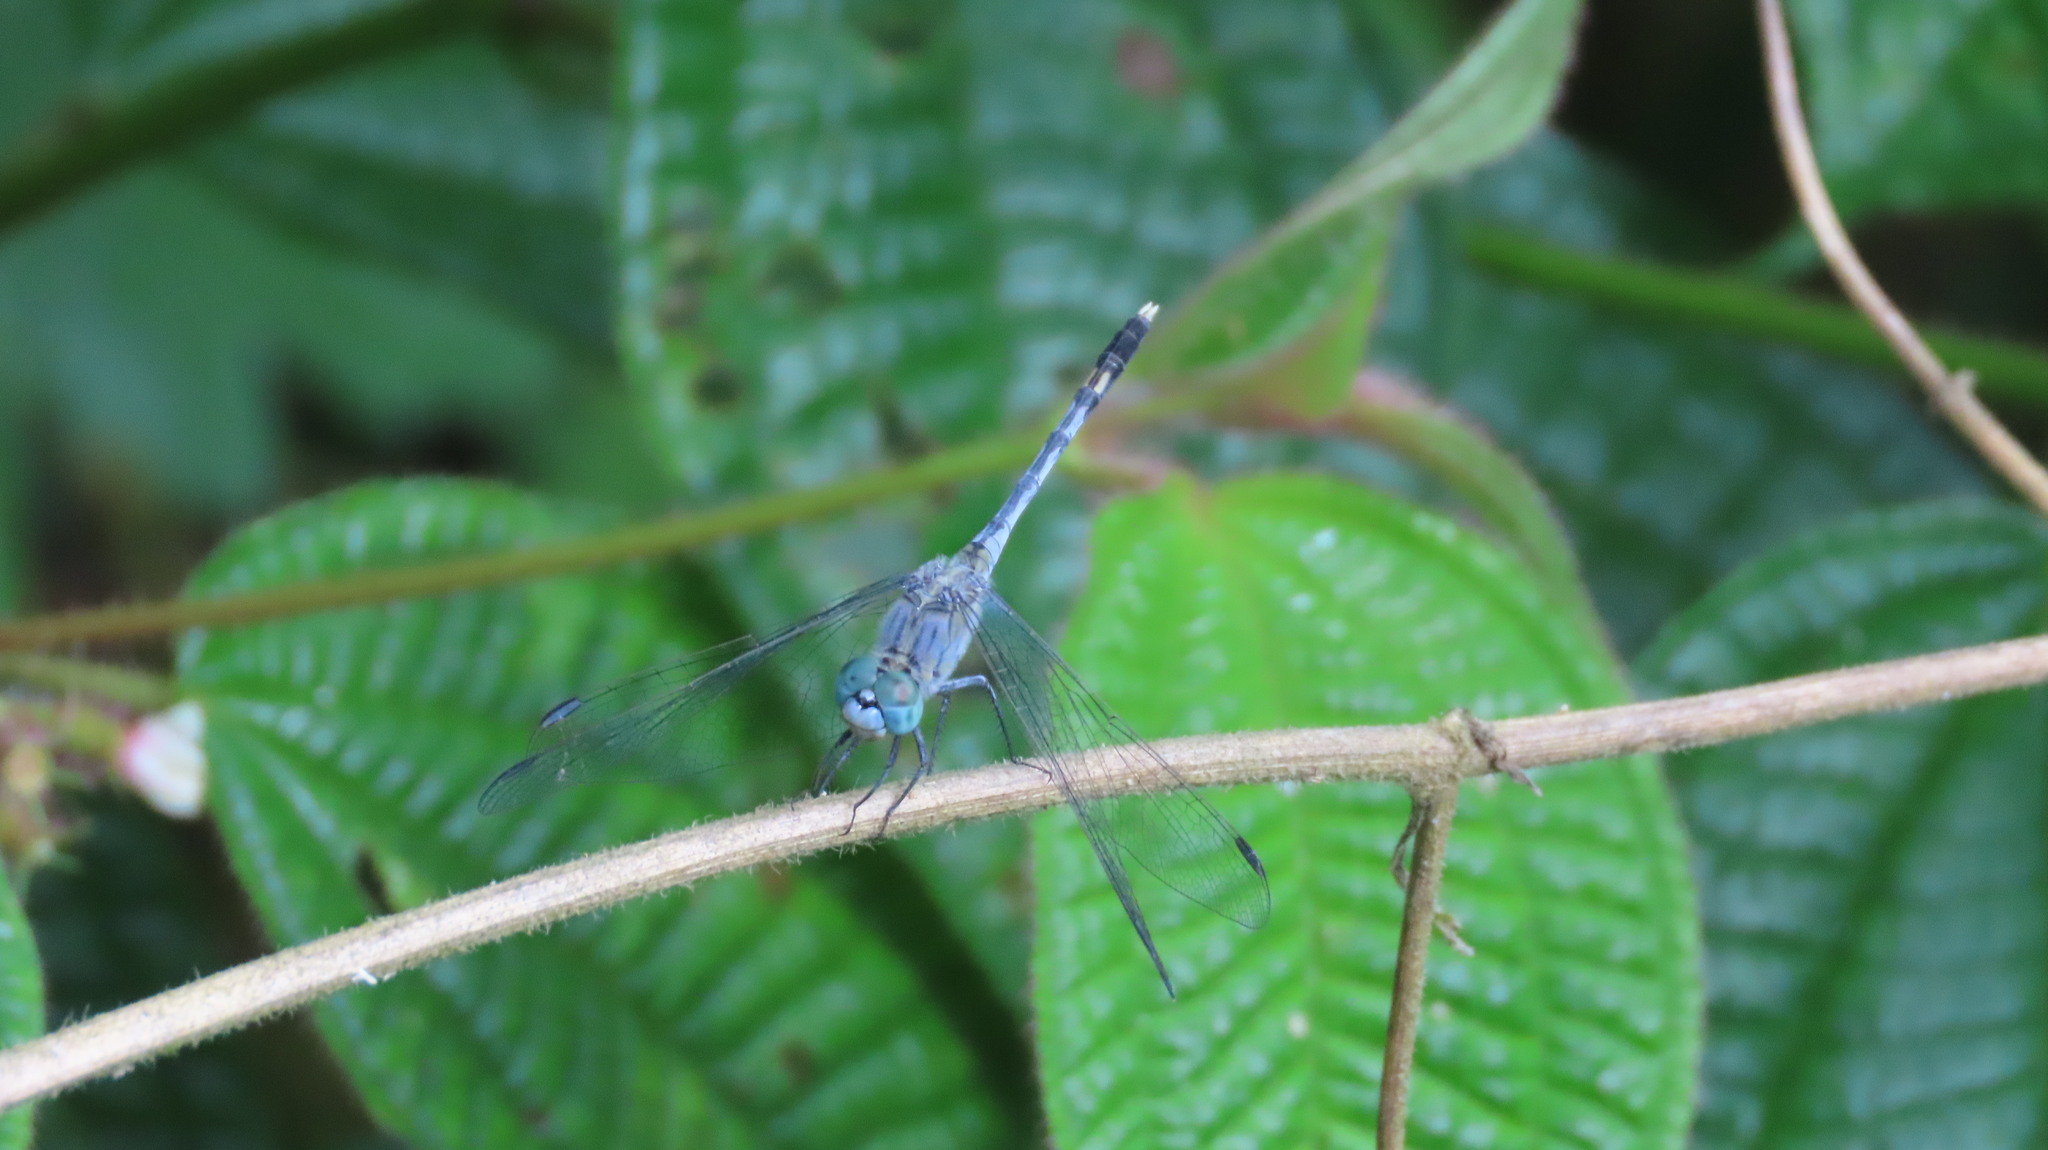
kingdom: Animalia
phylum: Arthropoda
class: Insecta
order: Odonata
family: Libellulidae
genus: Diplacodes
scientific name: Diplacodes trivialis
